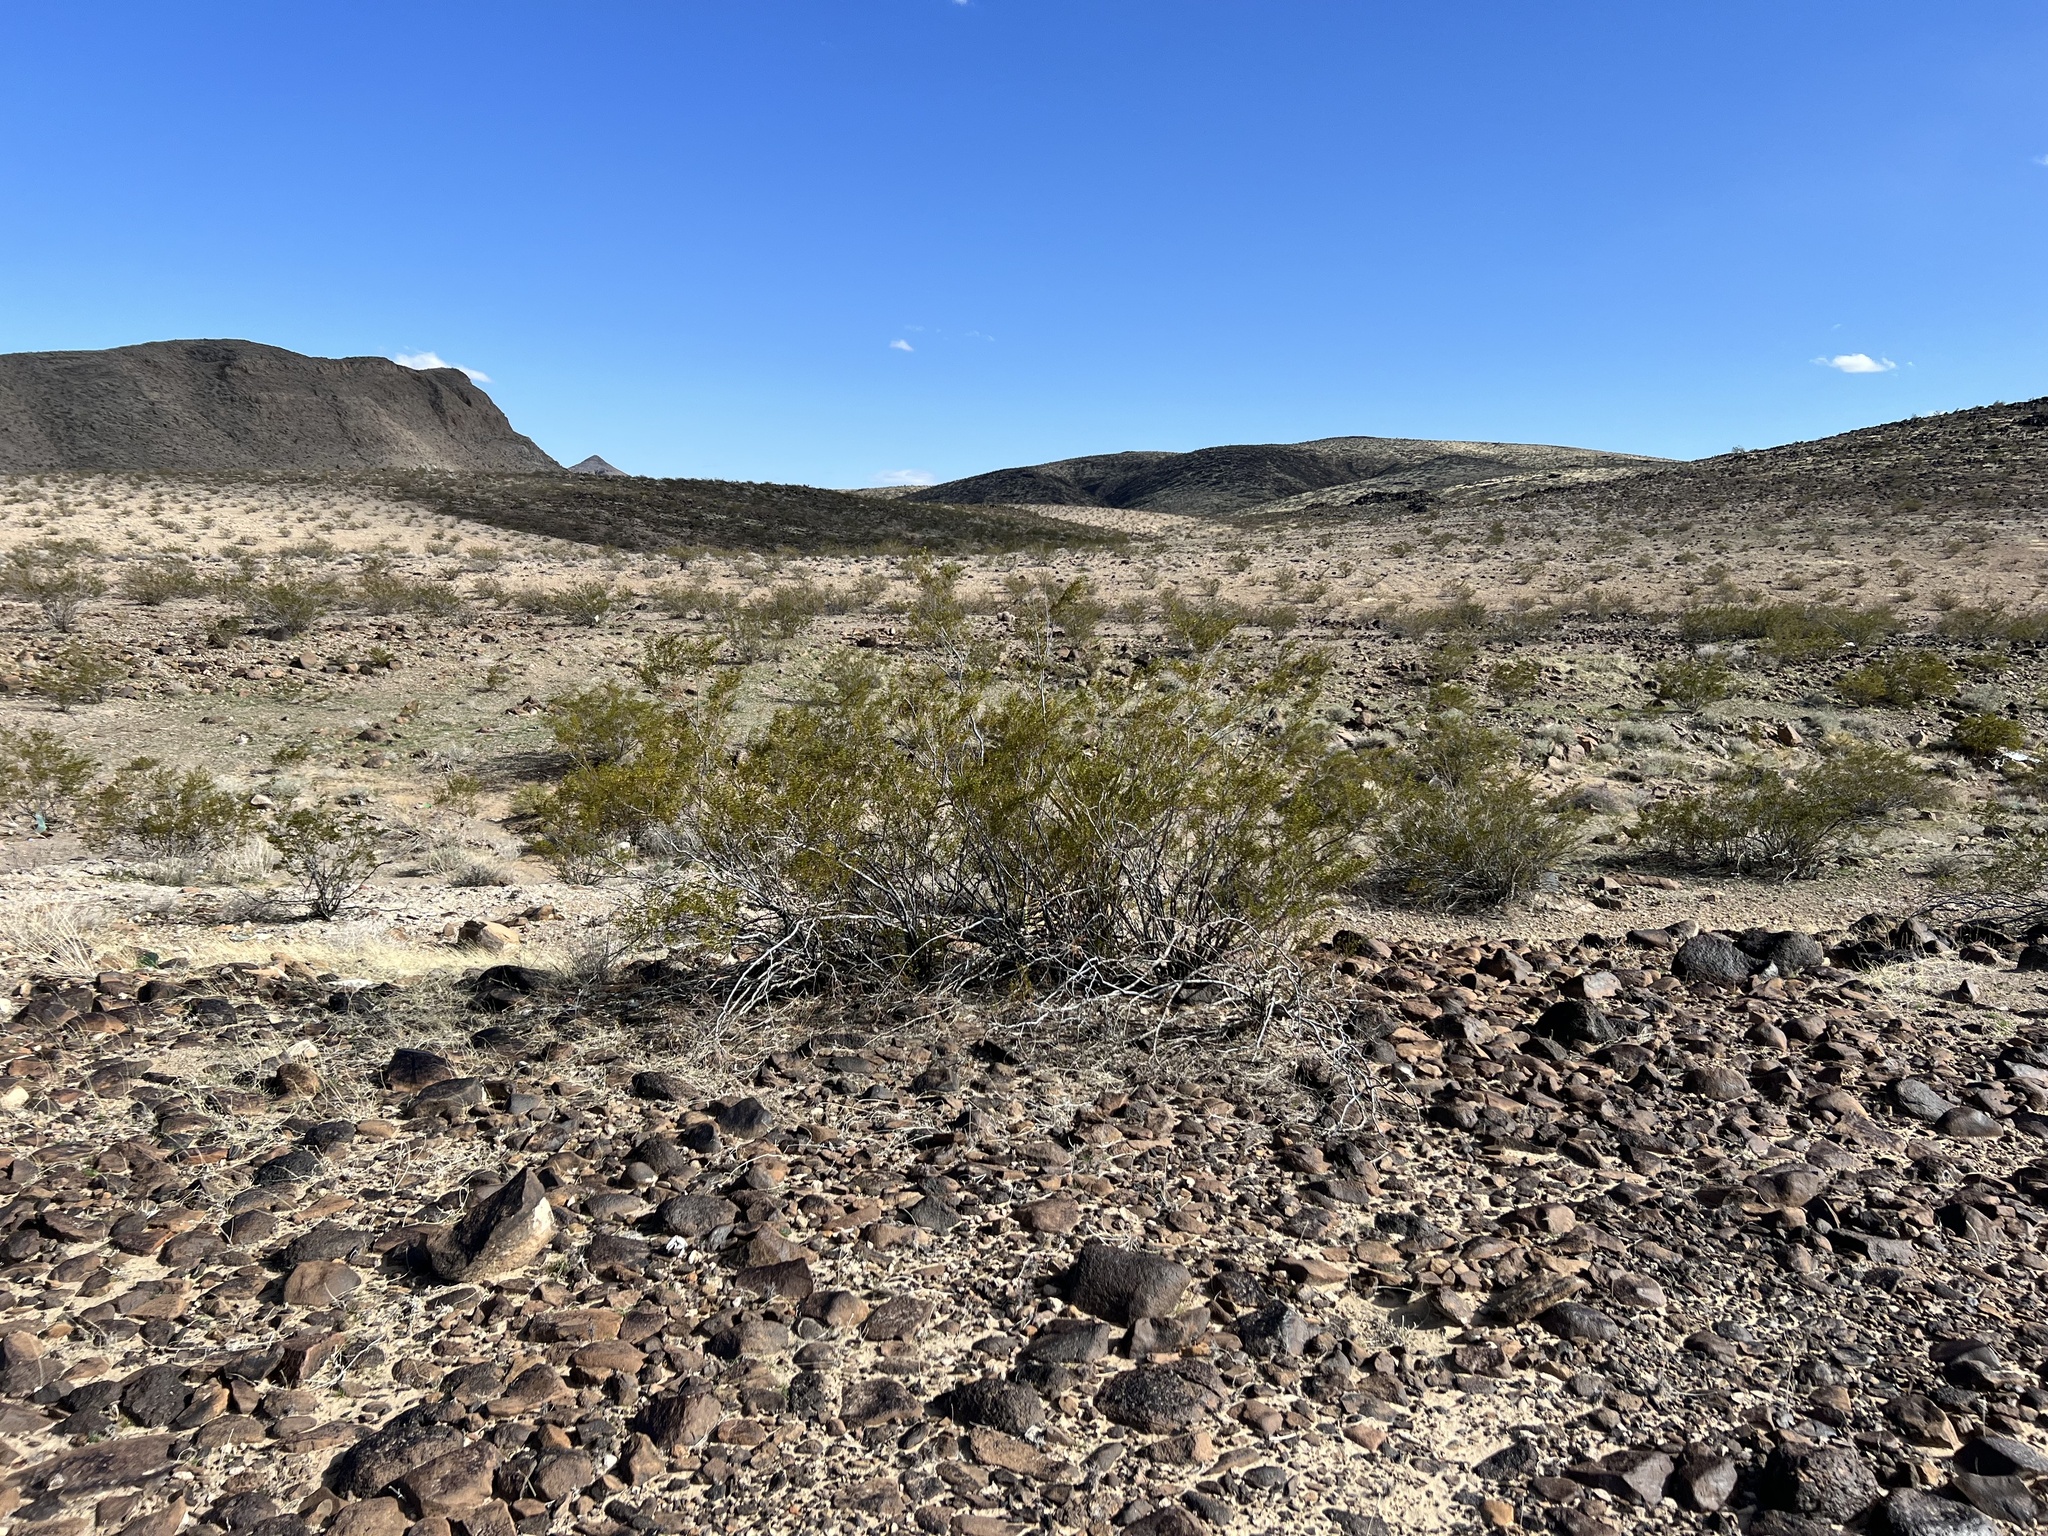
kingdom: Plantae
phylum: Tracheophyta
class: Magnoliopsida
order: Zygophyllales
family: Zygophyllaceae
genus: Larrea
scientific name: Larrea tridentata
